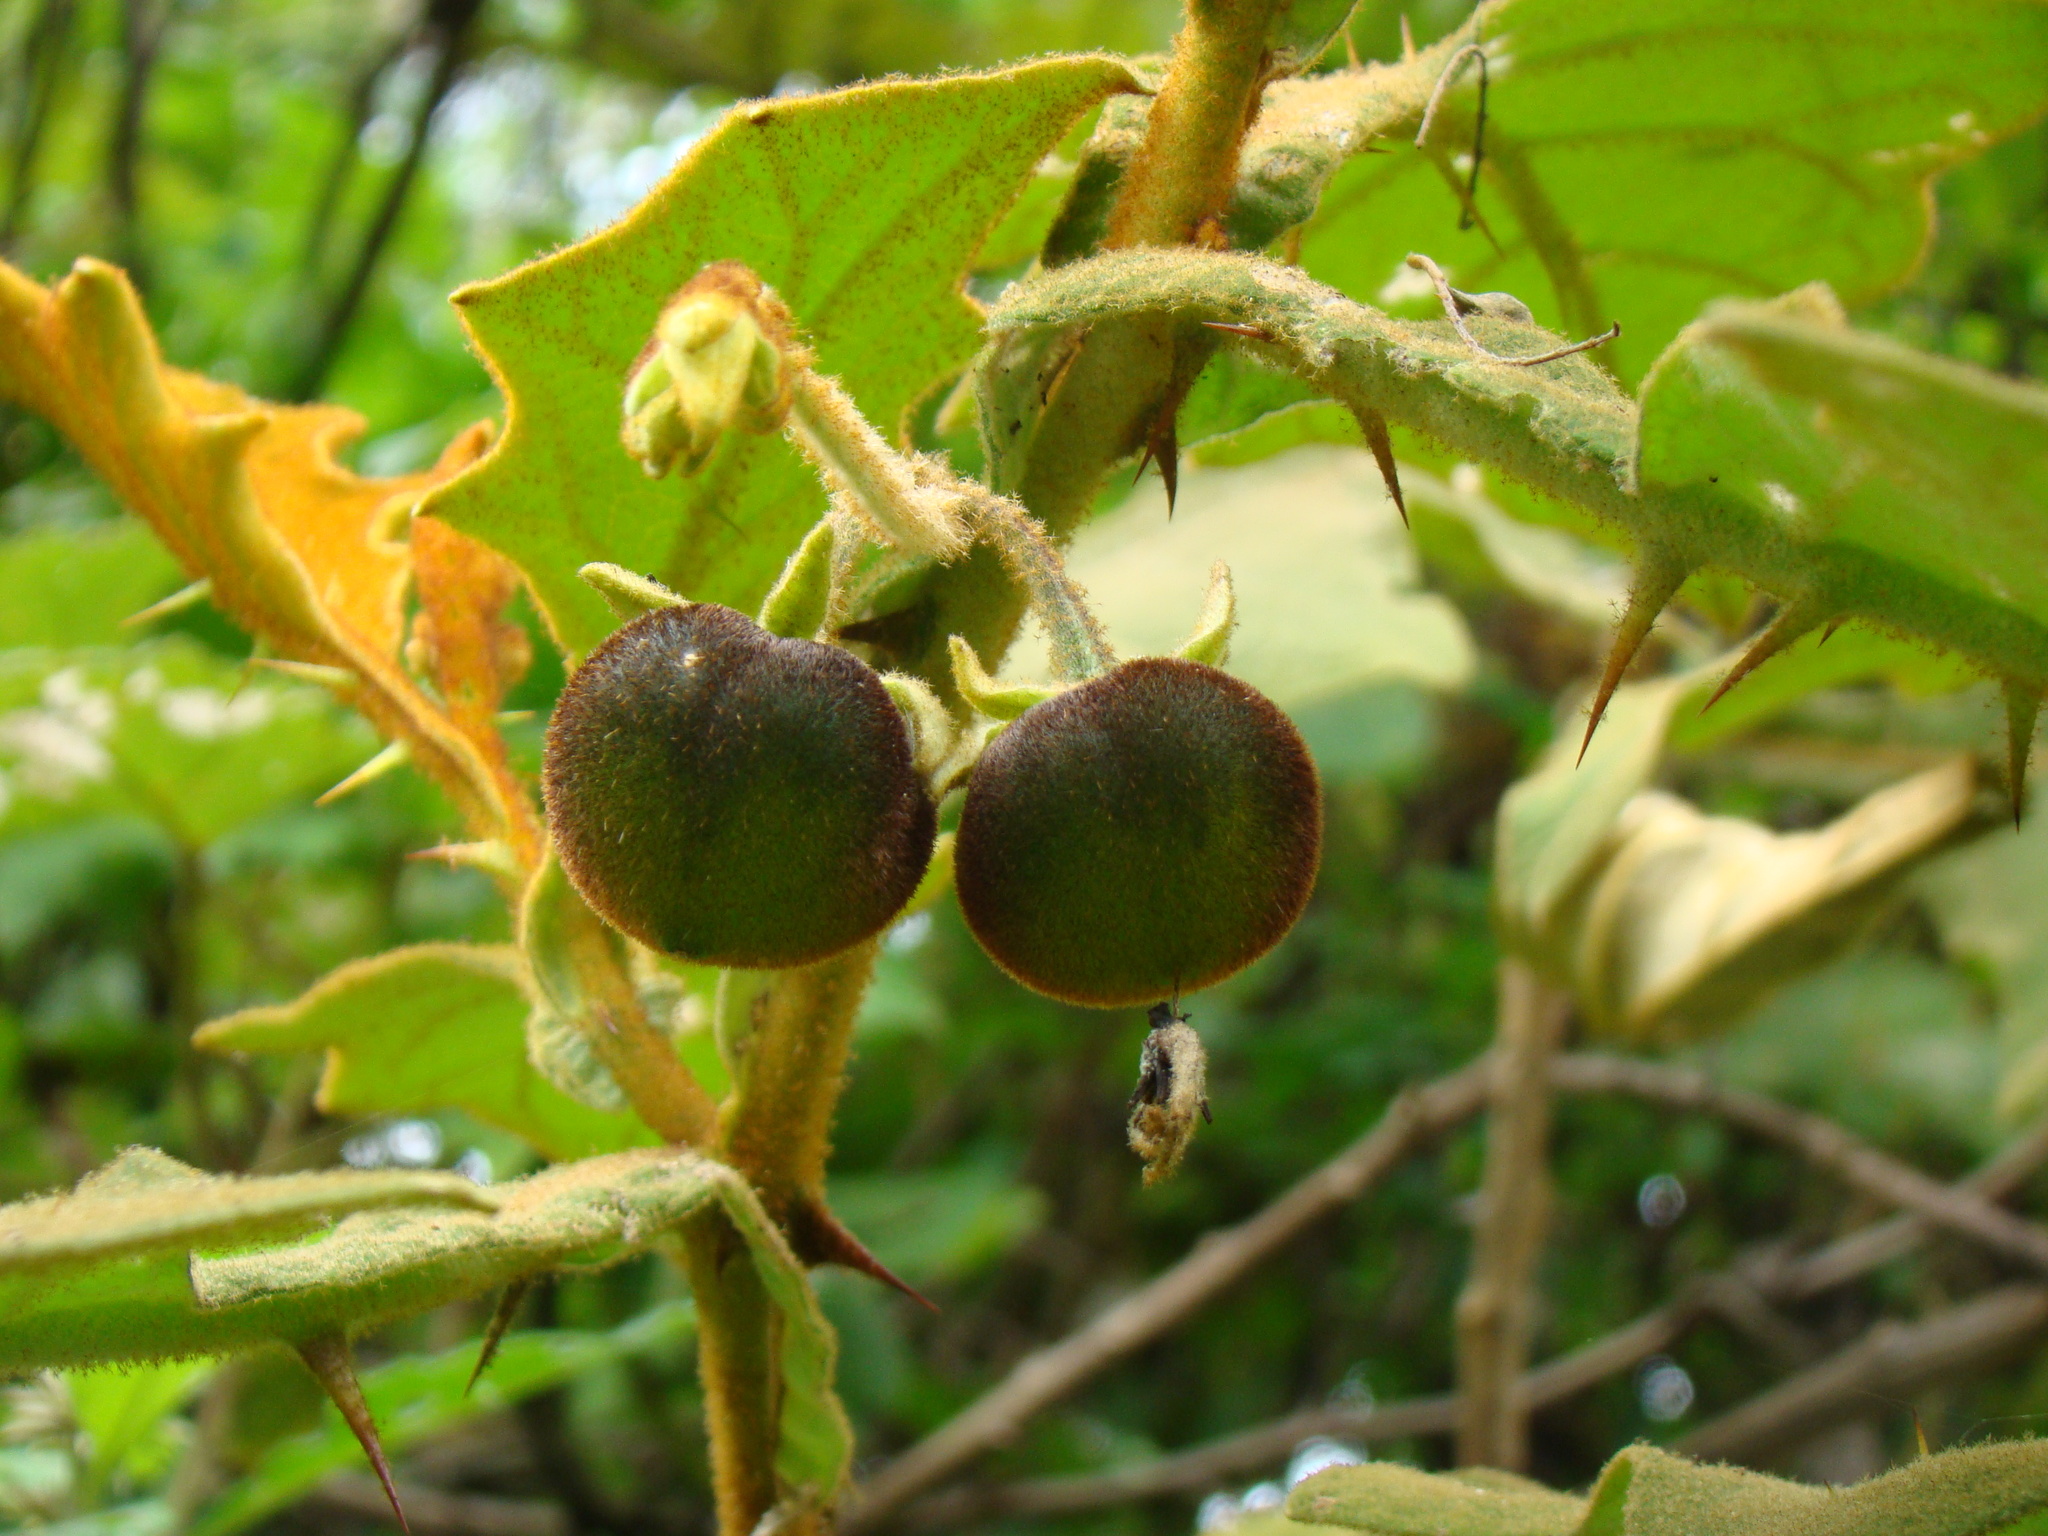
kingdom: Plantae
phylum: Tracheophyta
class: Magnoliopsida
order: Solanales
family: Solanaceae
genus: Solanum
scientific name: Solanum robustum
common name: Shrubby nightshade
